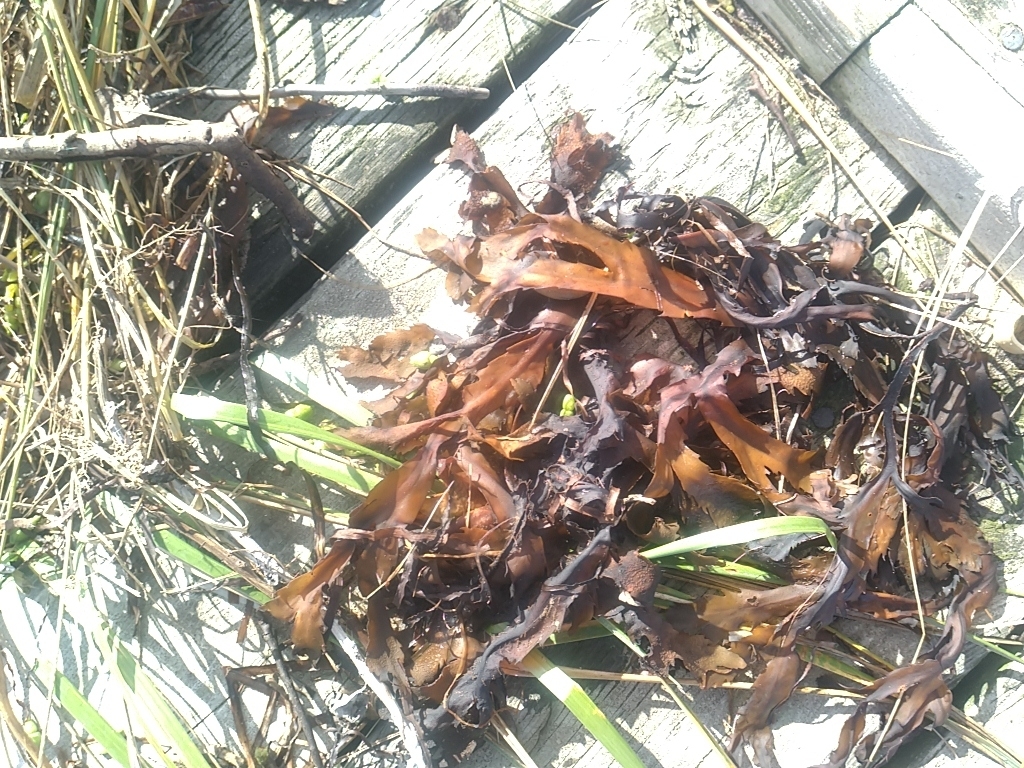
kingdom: Chromista
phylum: Ochrophyta
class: Phaeophyceae
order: Fucales
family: Fucaceae
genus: Fucus
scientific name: Fucus serratus
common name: Toothed wrack
